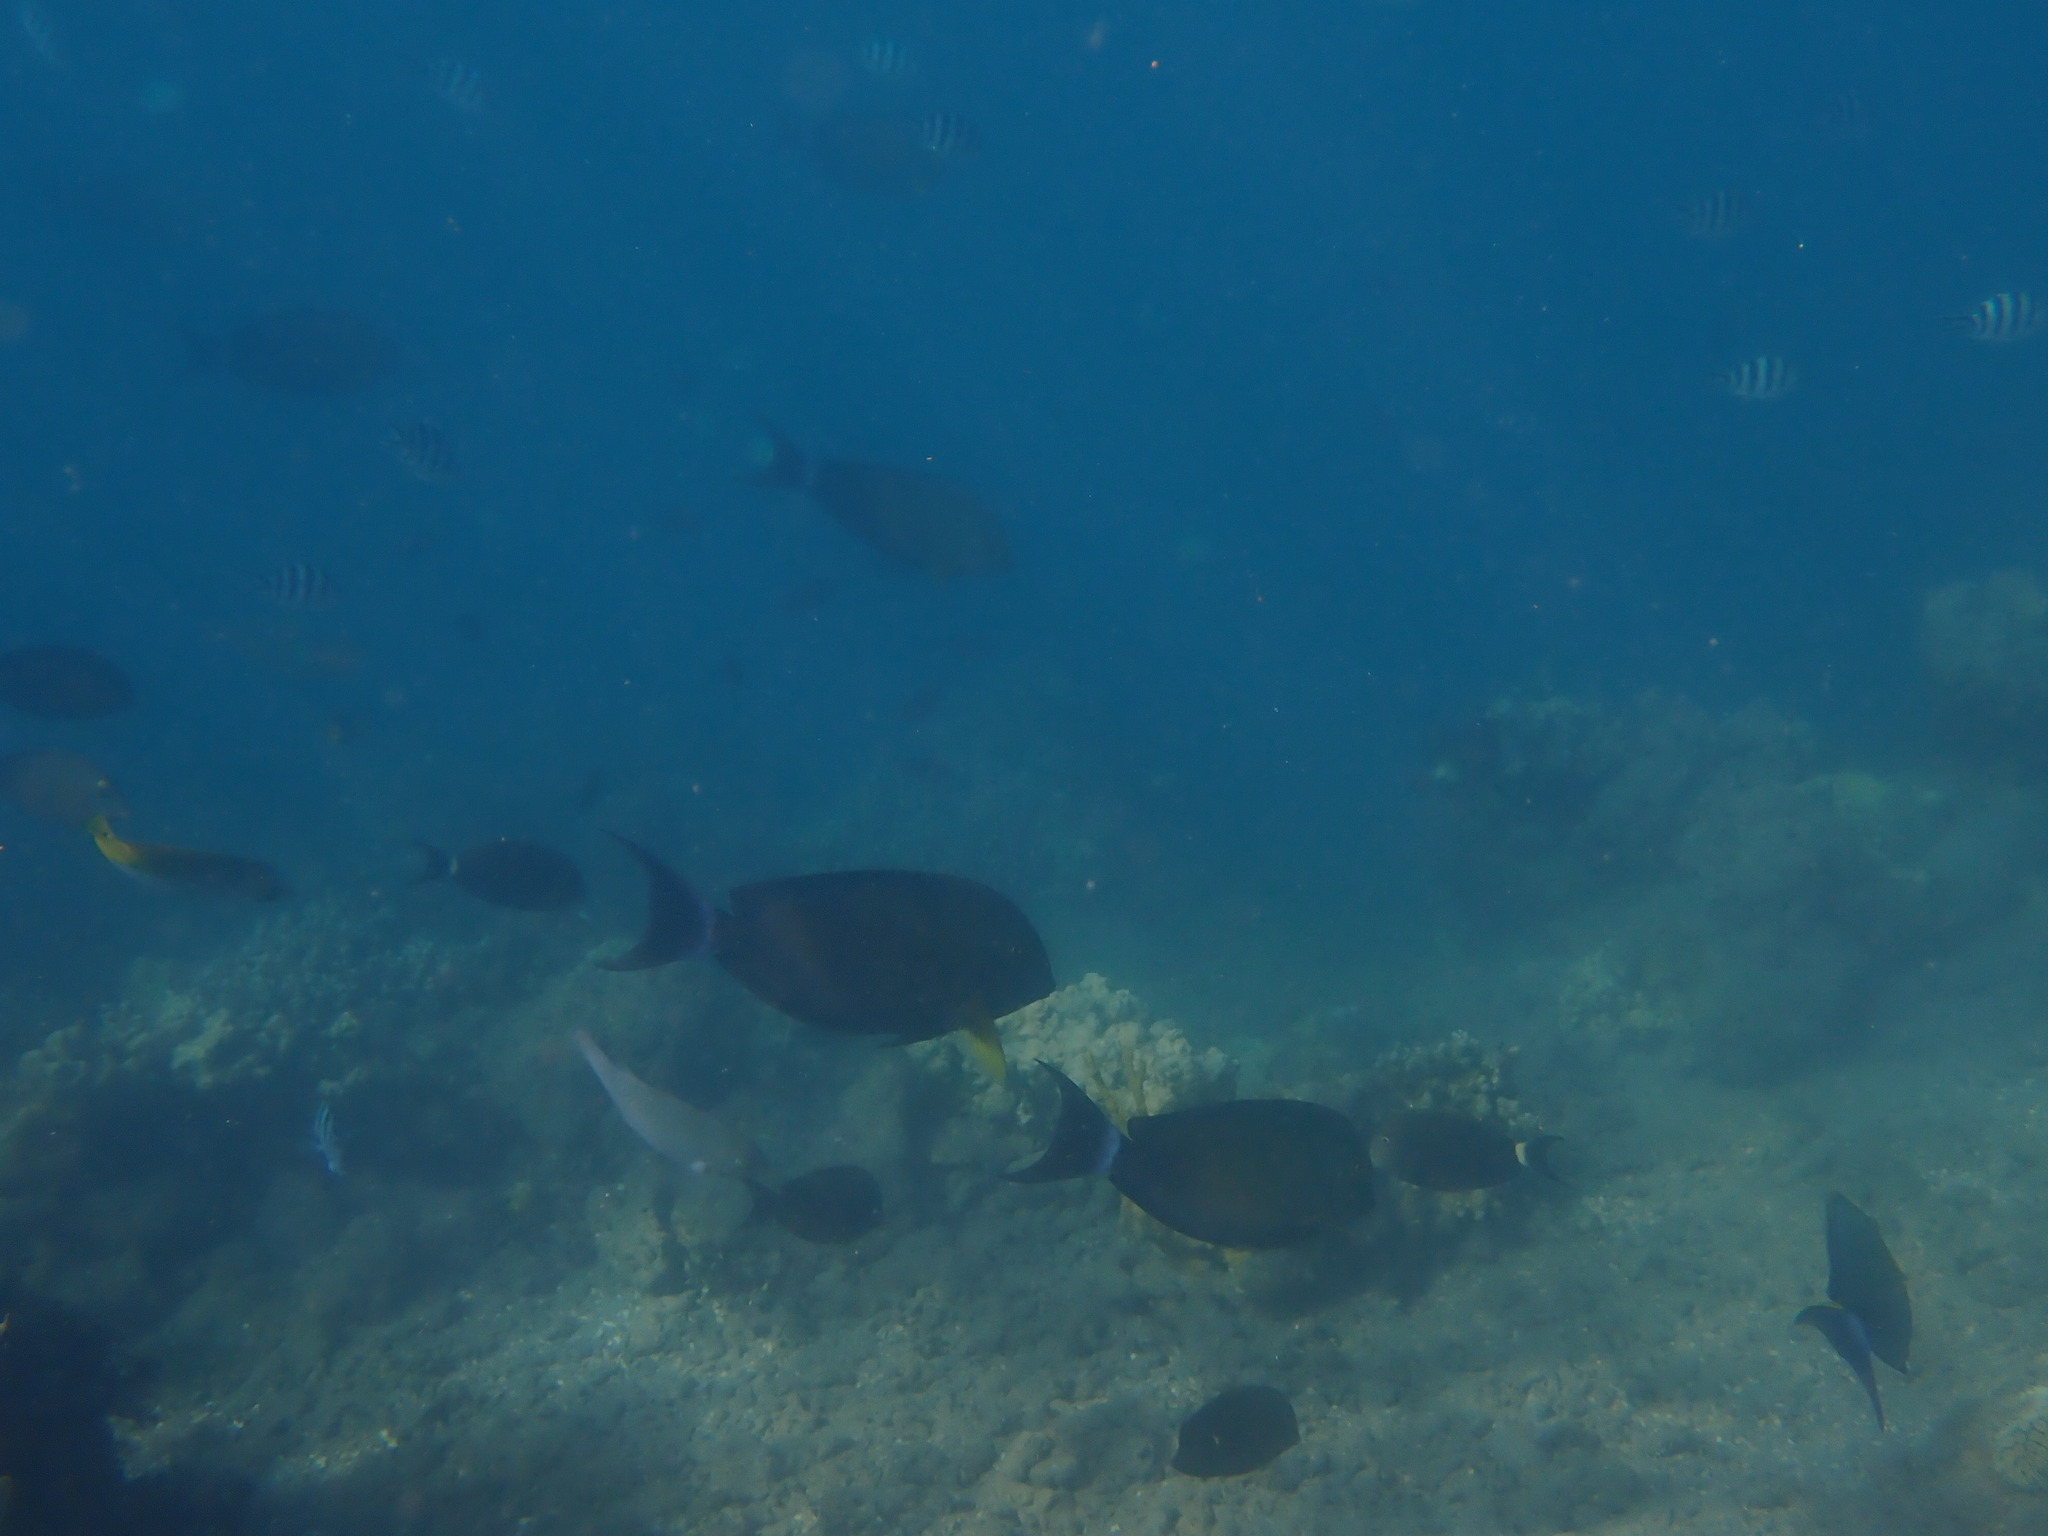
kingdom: Animalia
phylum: Chordata
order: Perciformes
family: Acanthuridae
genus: Acanthurus
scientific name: Acanthurus xanthopterus
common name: Cuvier's surgeonfish
